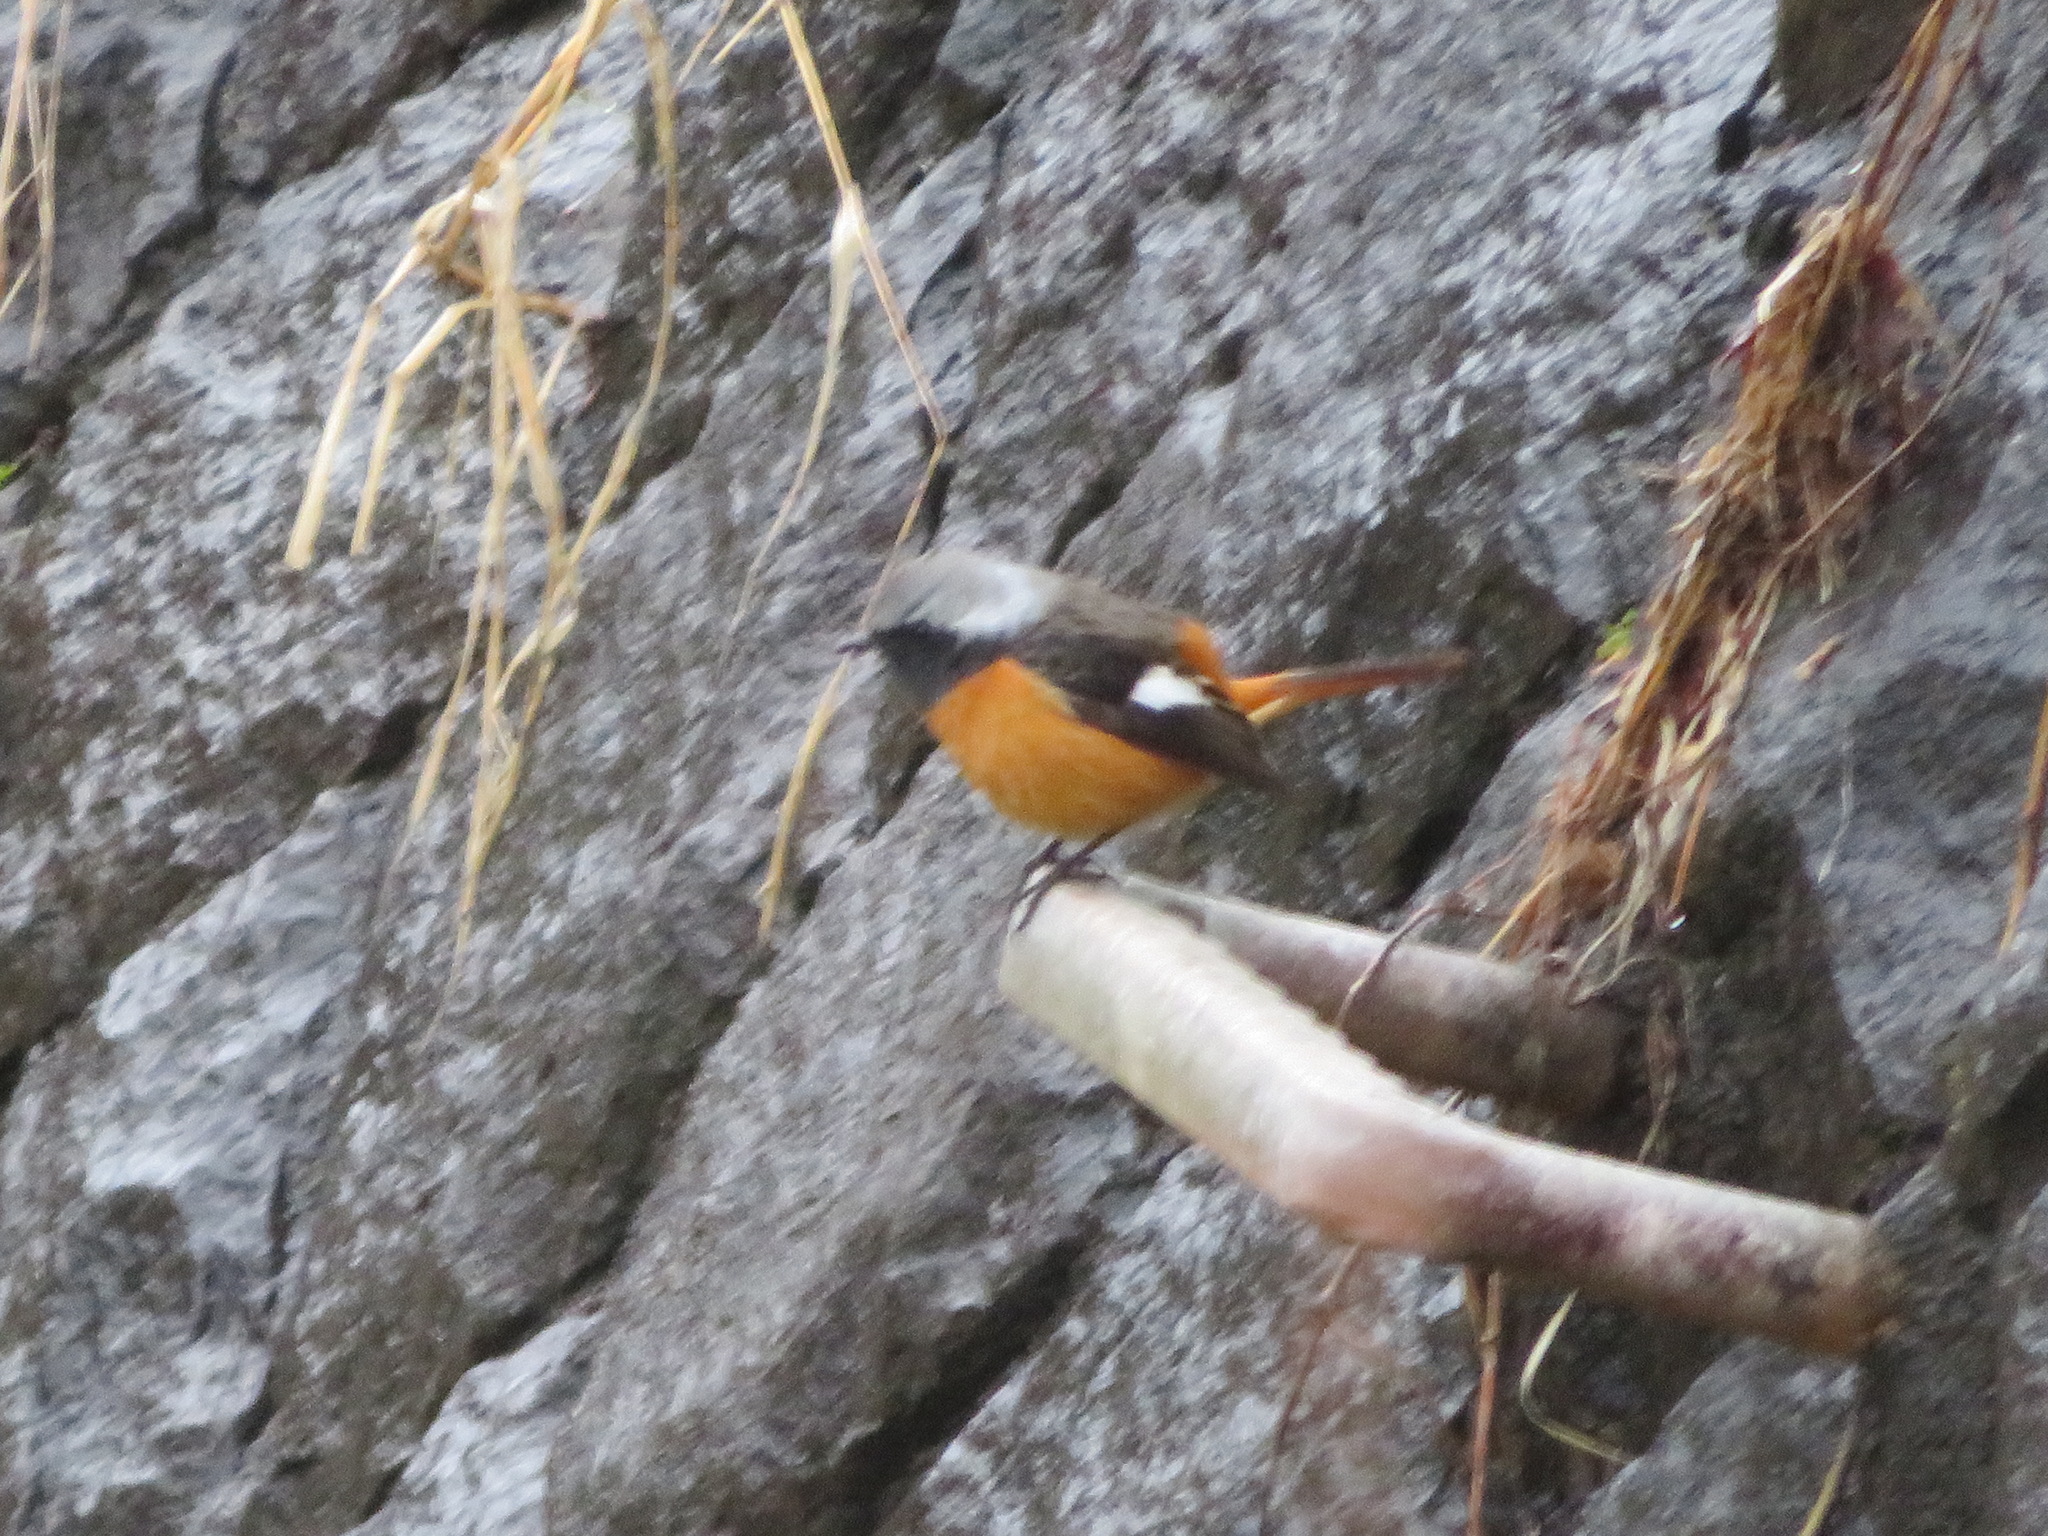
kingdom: Animalia
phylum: Chordata
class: Aves
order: Passeriformes
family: Muscicapidae
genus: Phoenicurus
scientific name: Phoenicurus auroreus
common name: Daurian redstart
